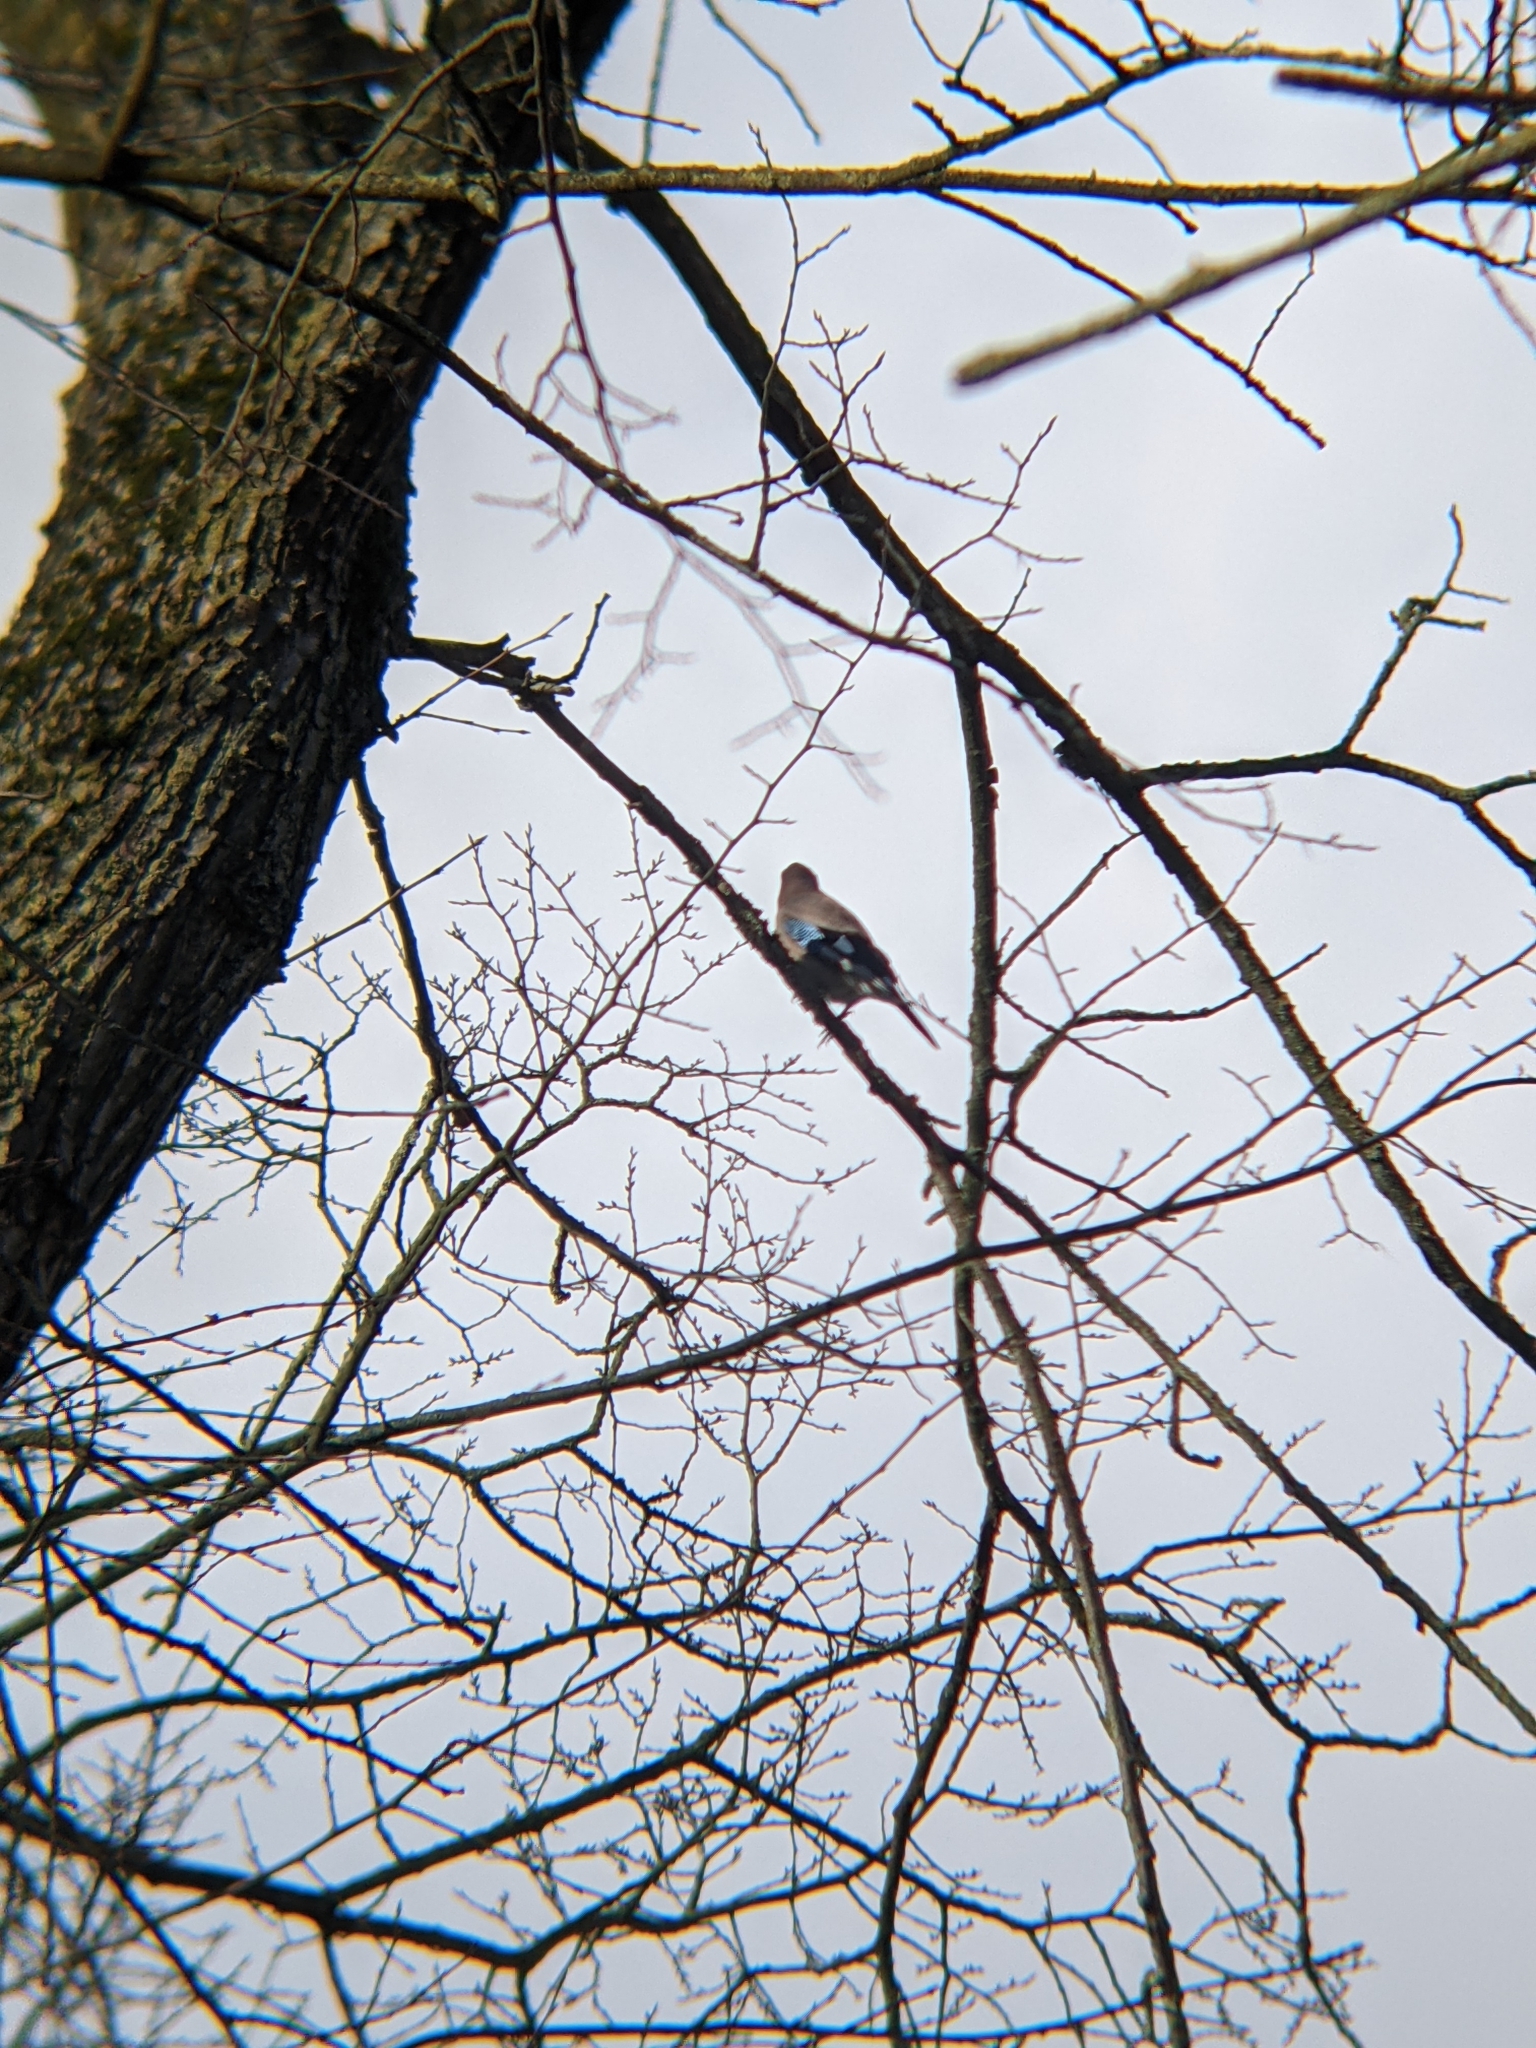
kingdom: Animalia
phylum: Chordata
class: Aves
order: Passeriformes
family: Corvidae
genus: Garrulus
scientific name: Garrulus glandarius
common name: Eurasian jay
